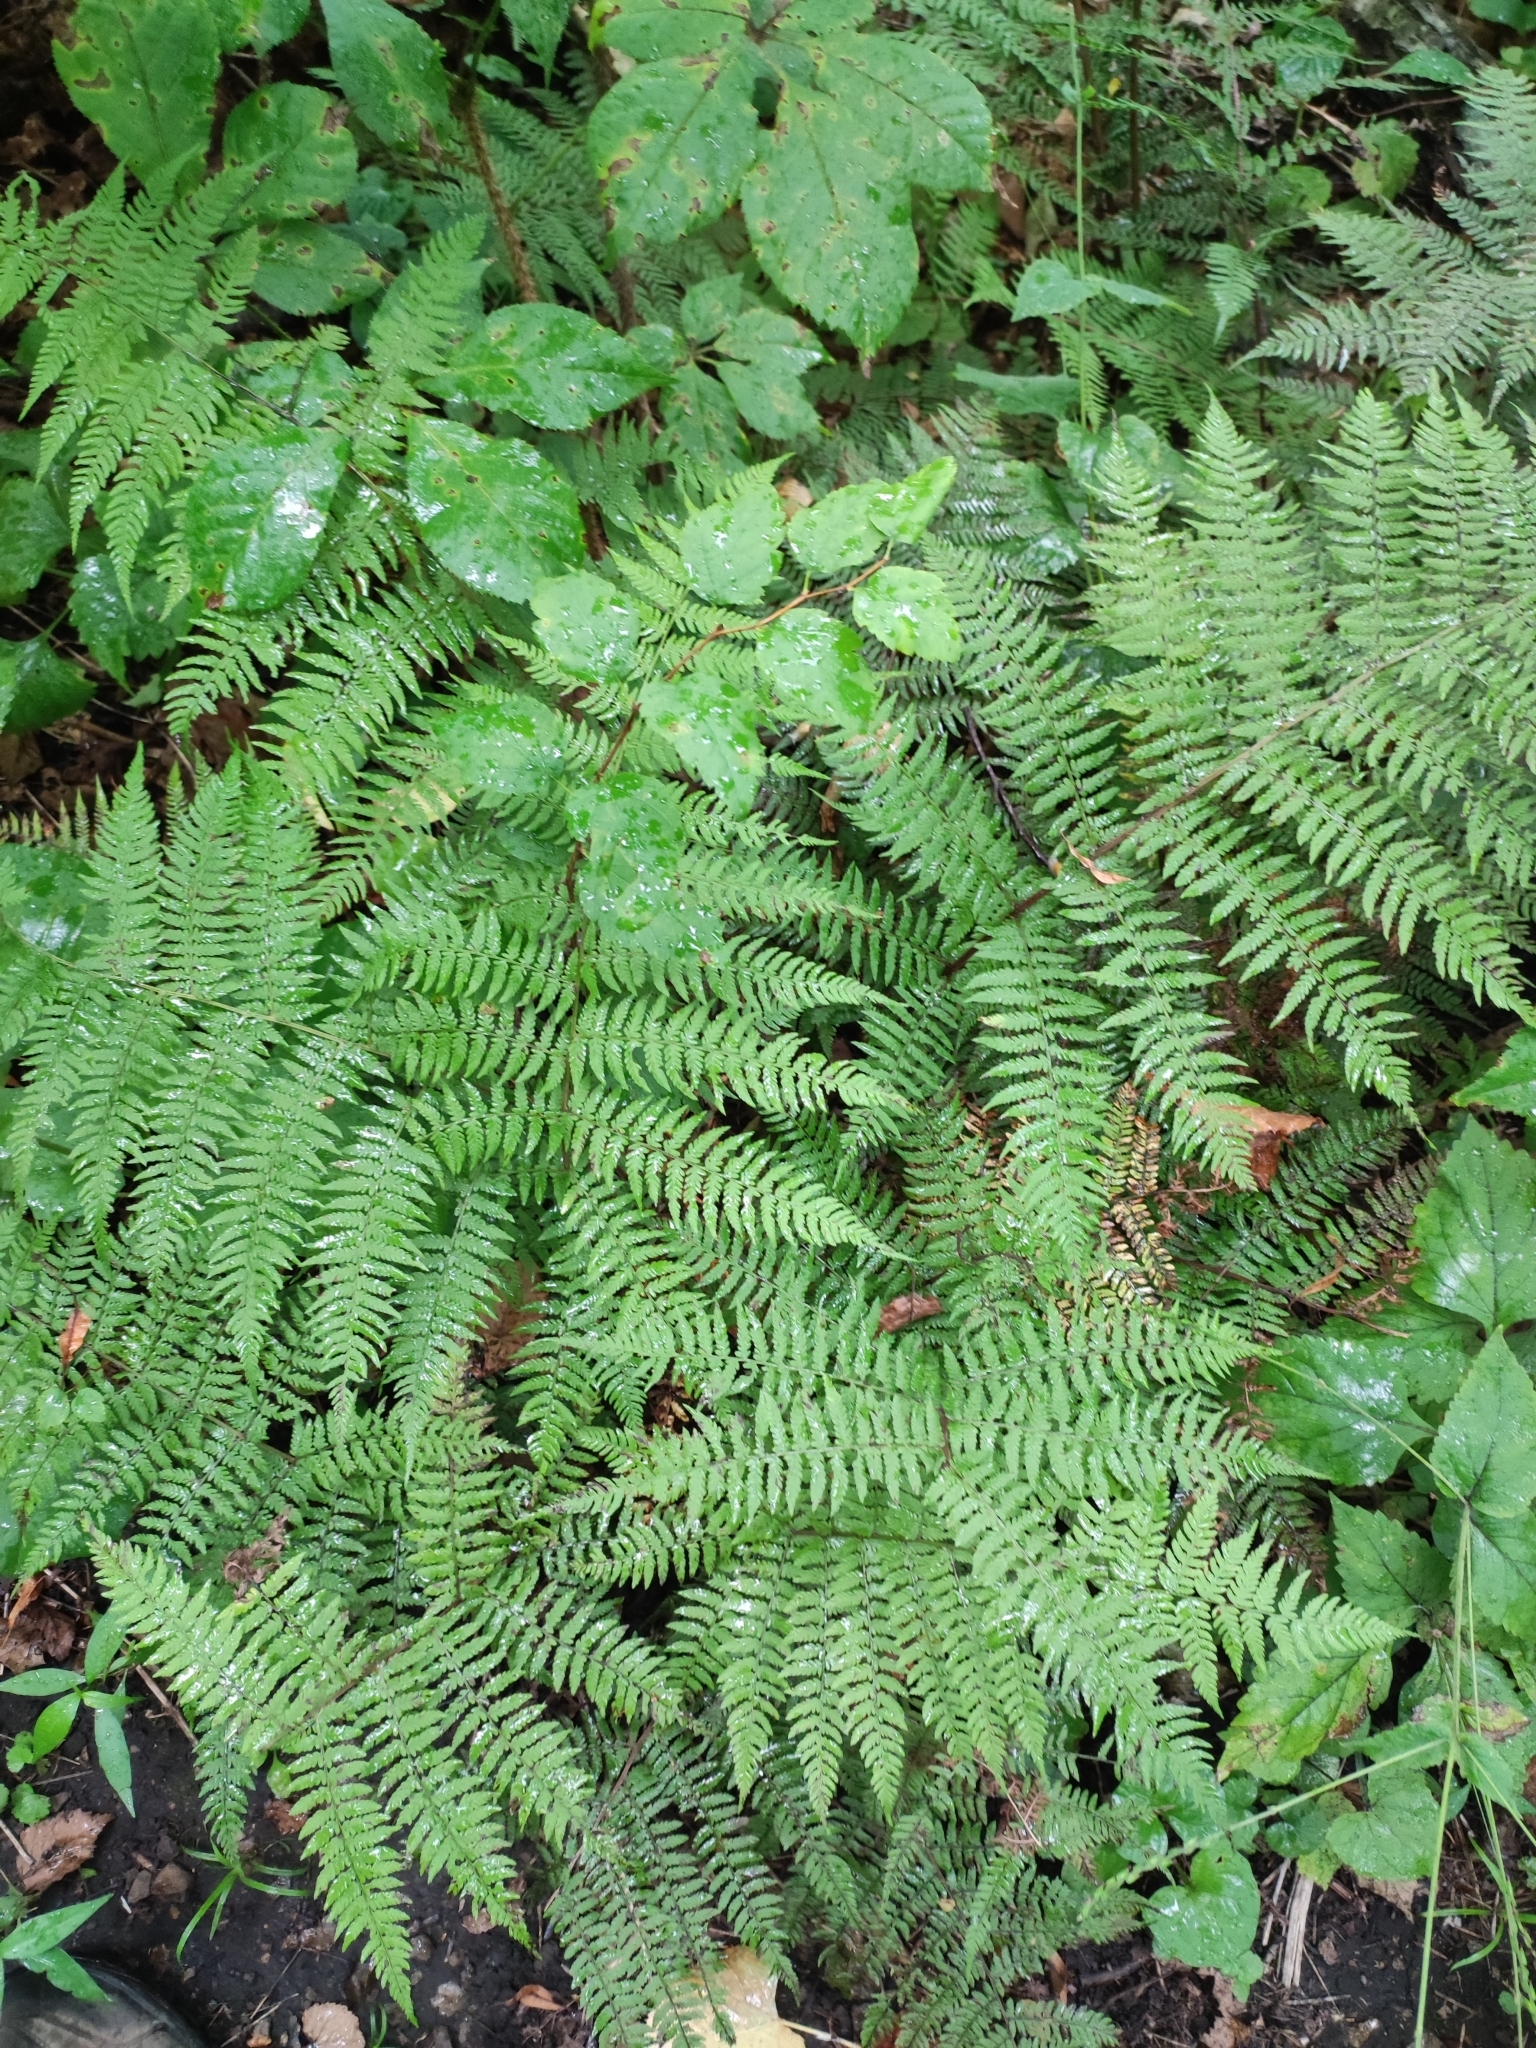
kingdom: Plantae
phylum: Tracheophyta
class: Polypodiopsida
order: Polypodiales
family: Athyriaceae
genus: Athyrium
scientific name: Athyrium filix-femina
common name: Lady fern
